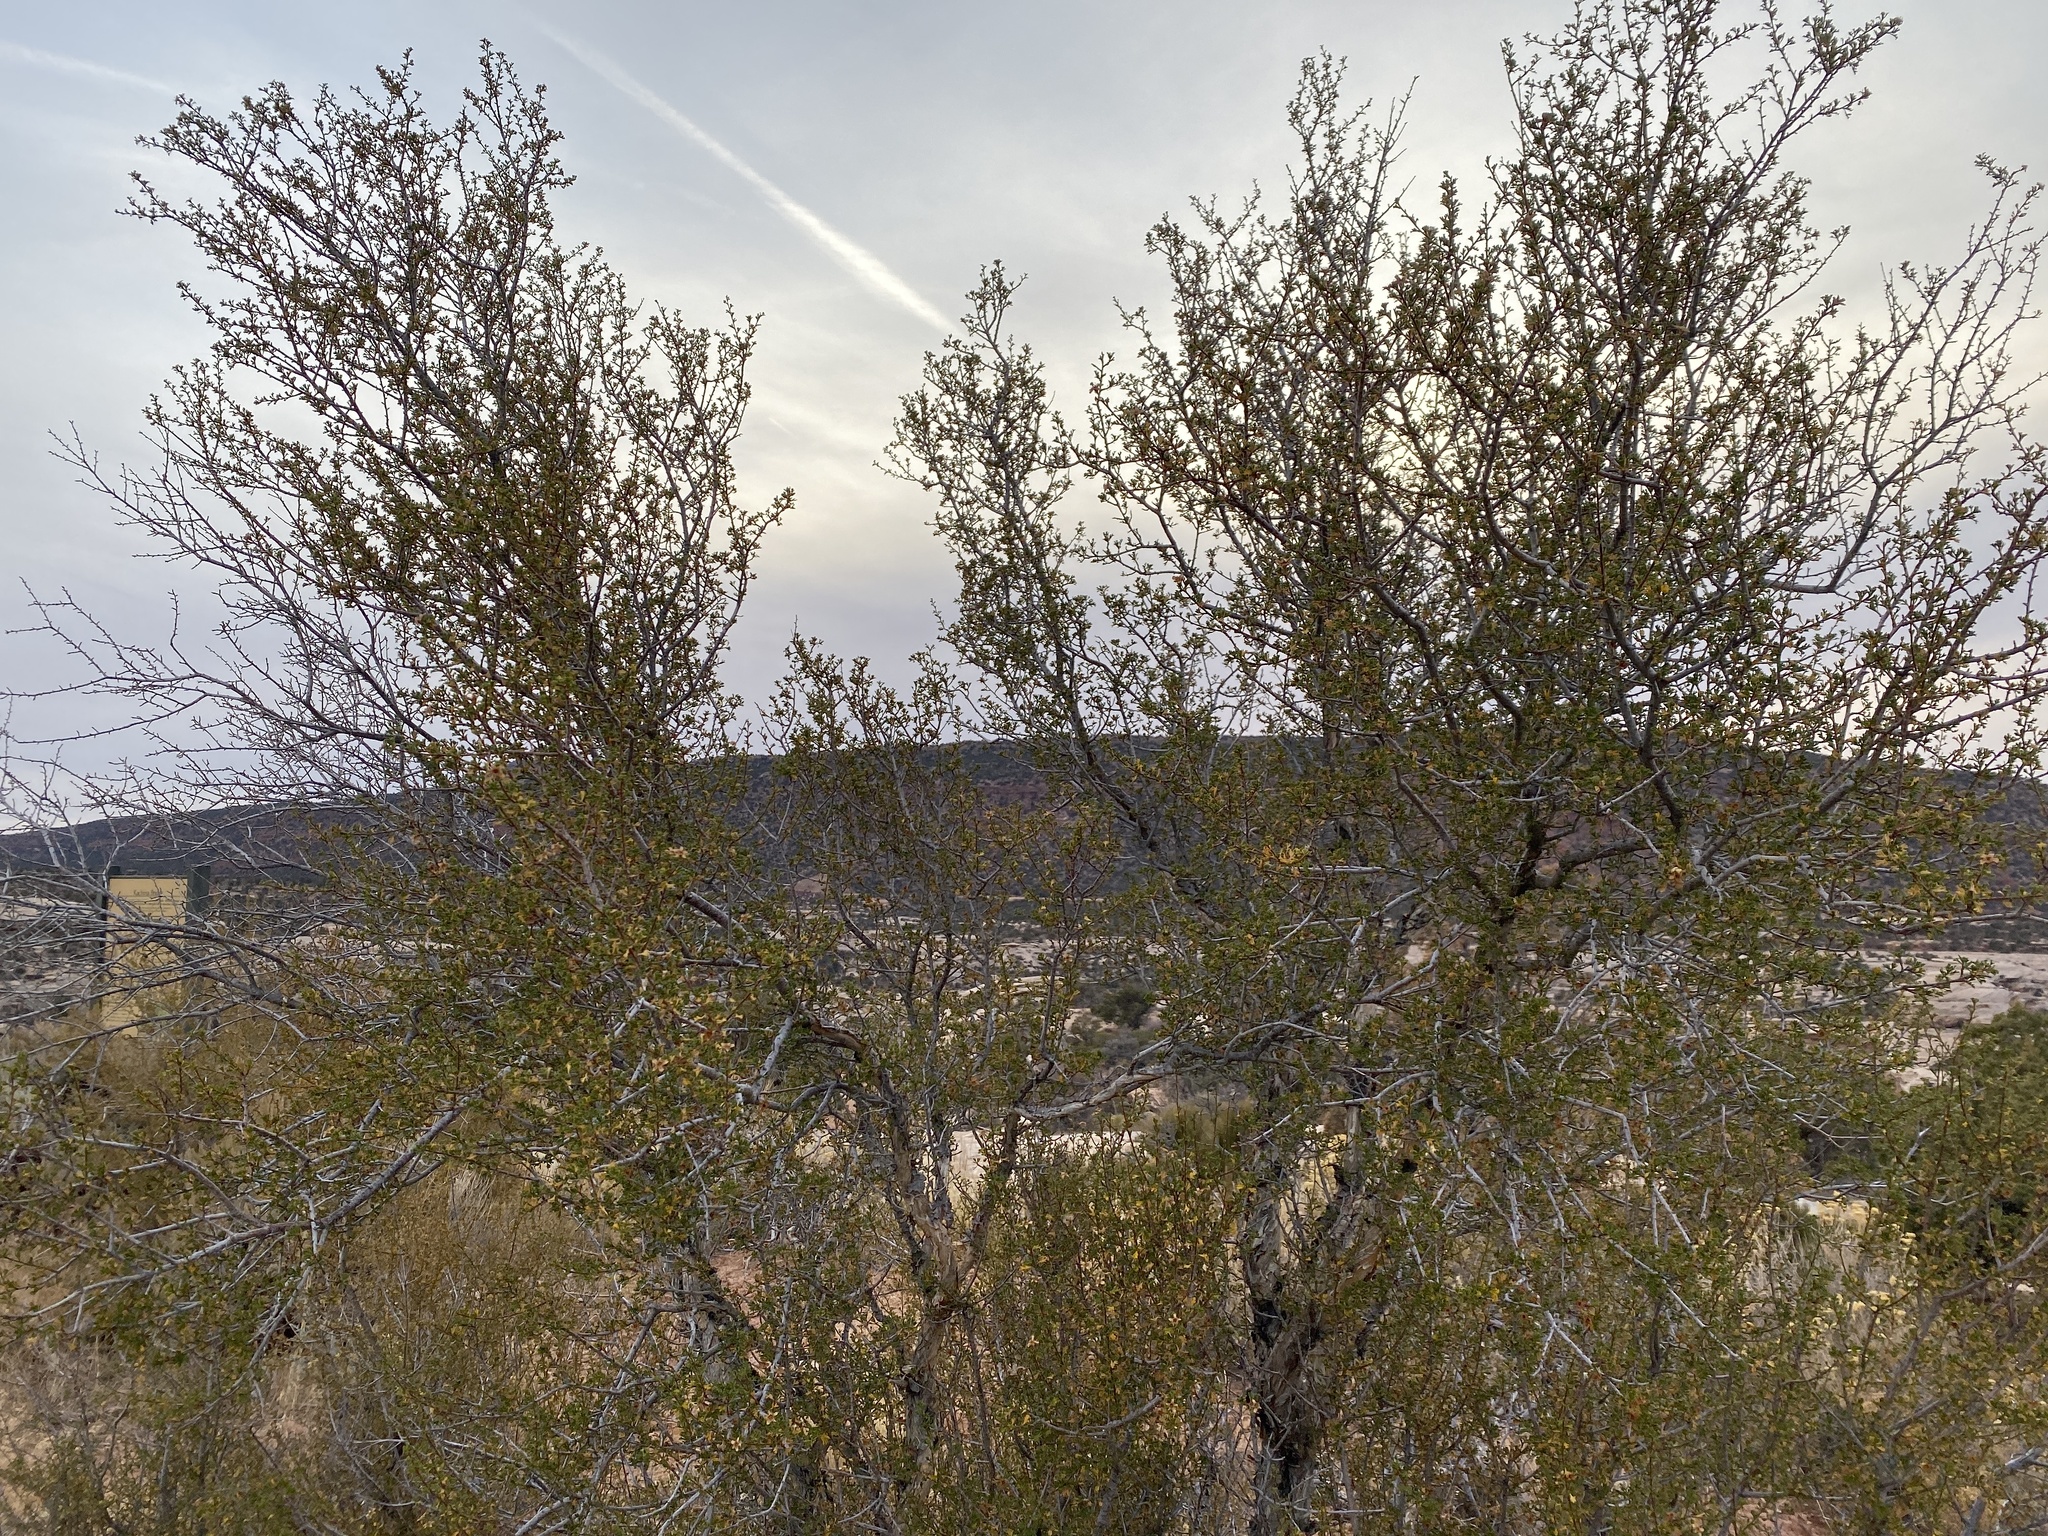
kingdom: Plantae
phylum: Tracheophyta
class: Magnoliopsida
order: Rosales
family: Rosaceae
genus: Purshia
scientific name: Purshia stansburiana
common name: Stansbury's cliffrose
